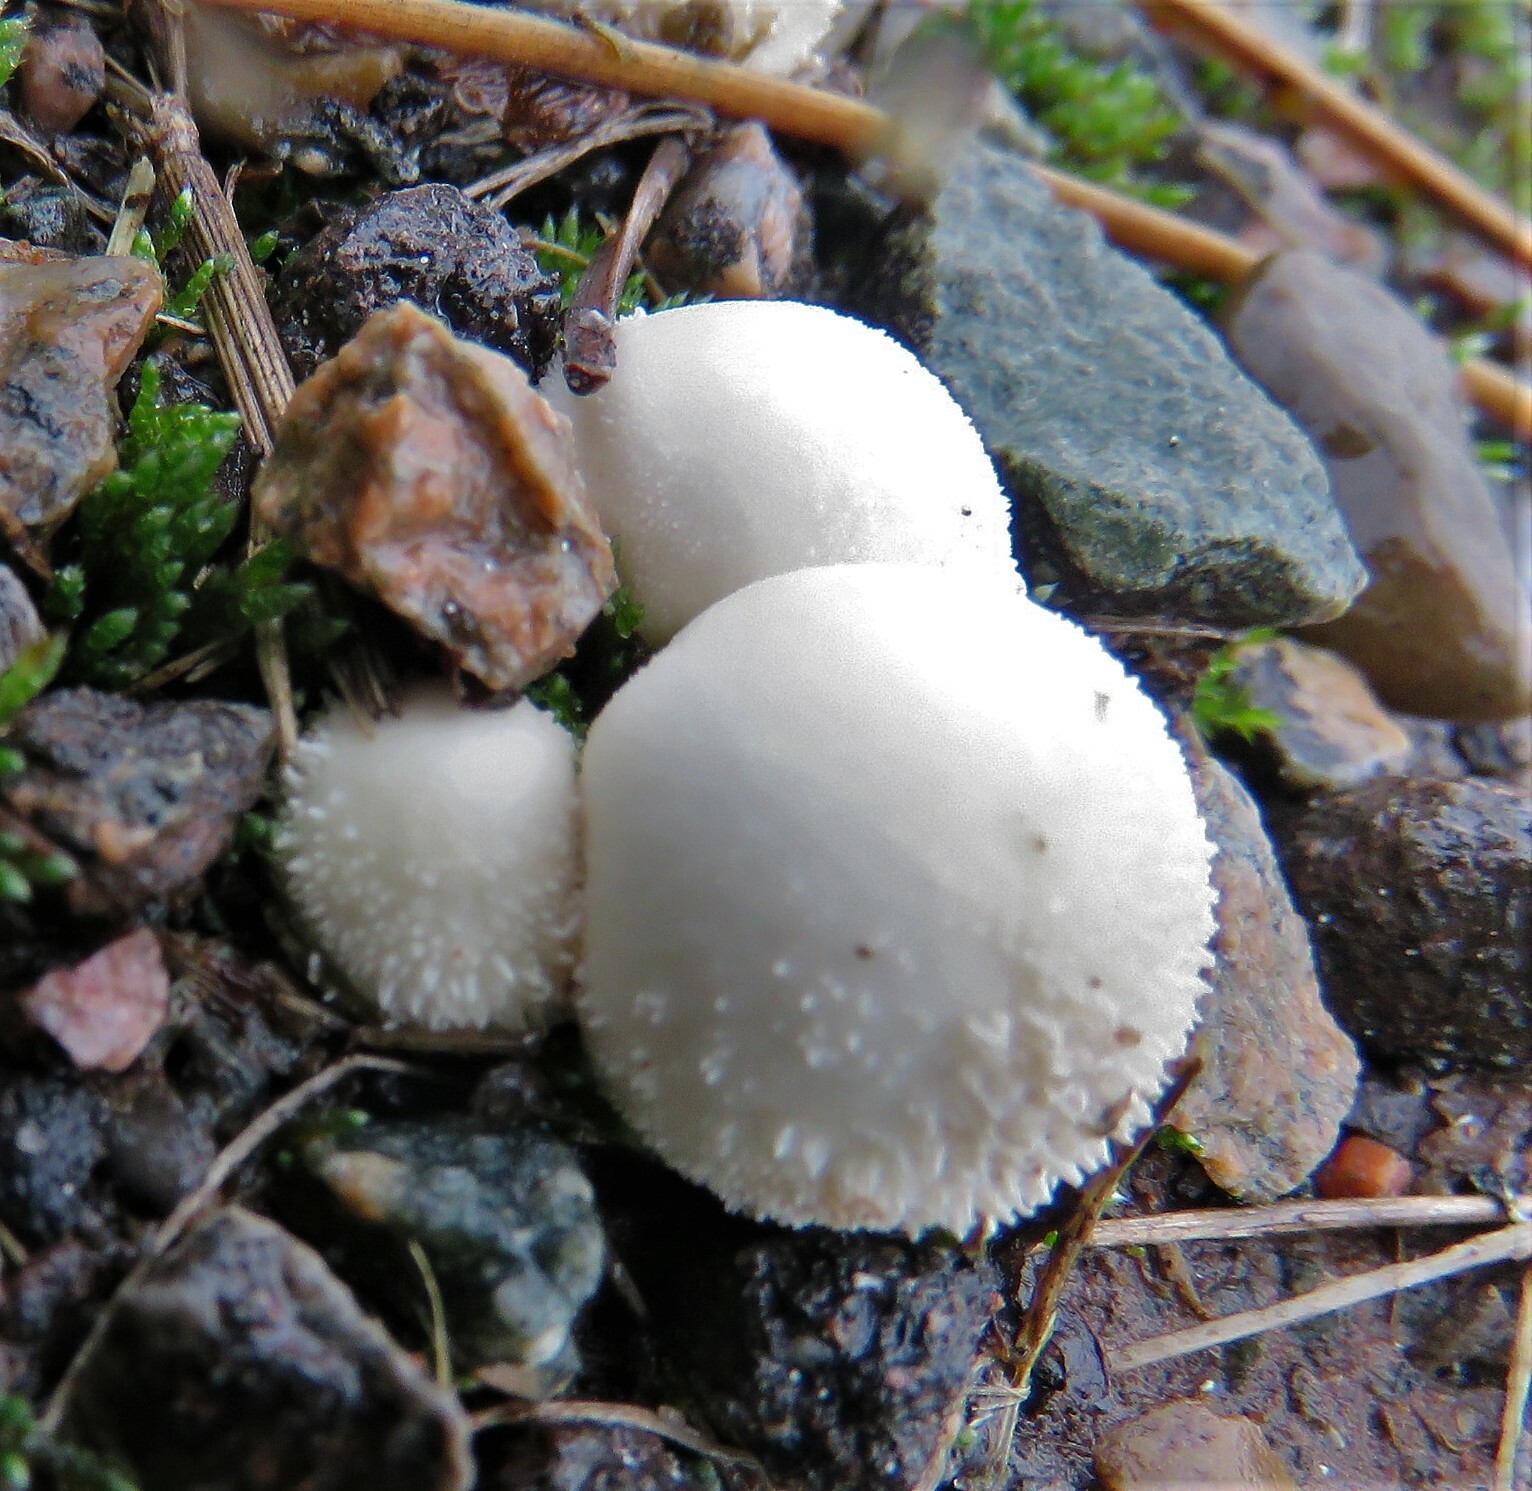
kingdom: Fungi
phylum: Basidiomycota
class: Agaricomycetes
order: Agaricales
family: Lycoperdaceae
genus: Lycoperdon
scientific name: Lycoperdon perlatum
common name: Common puffball
